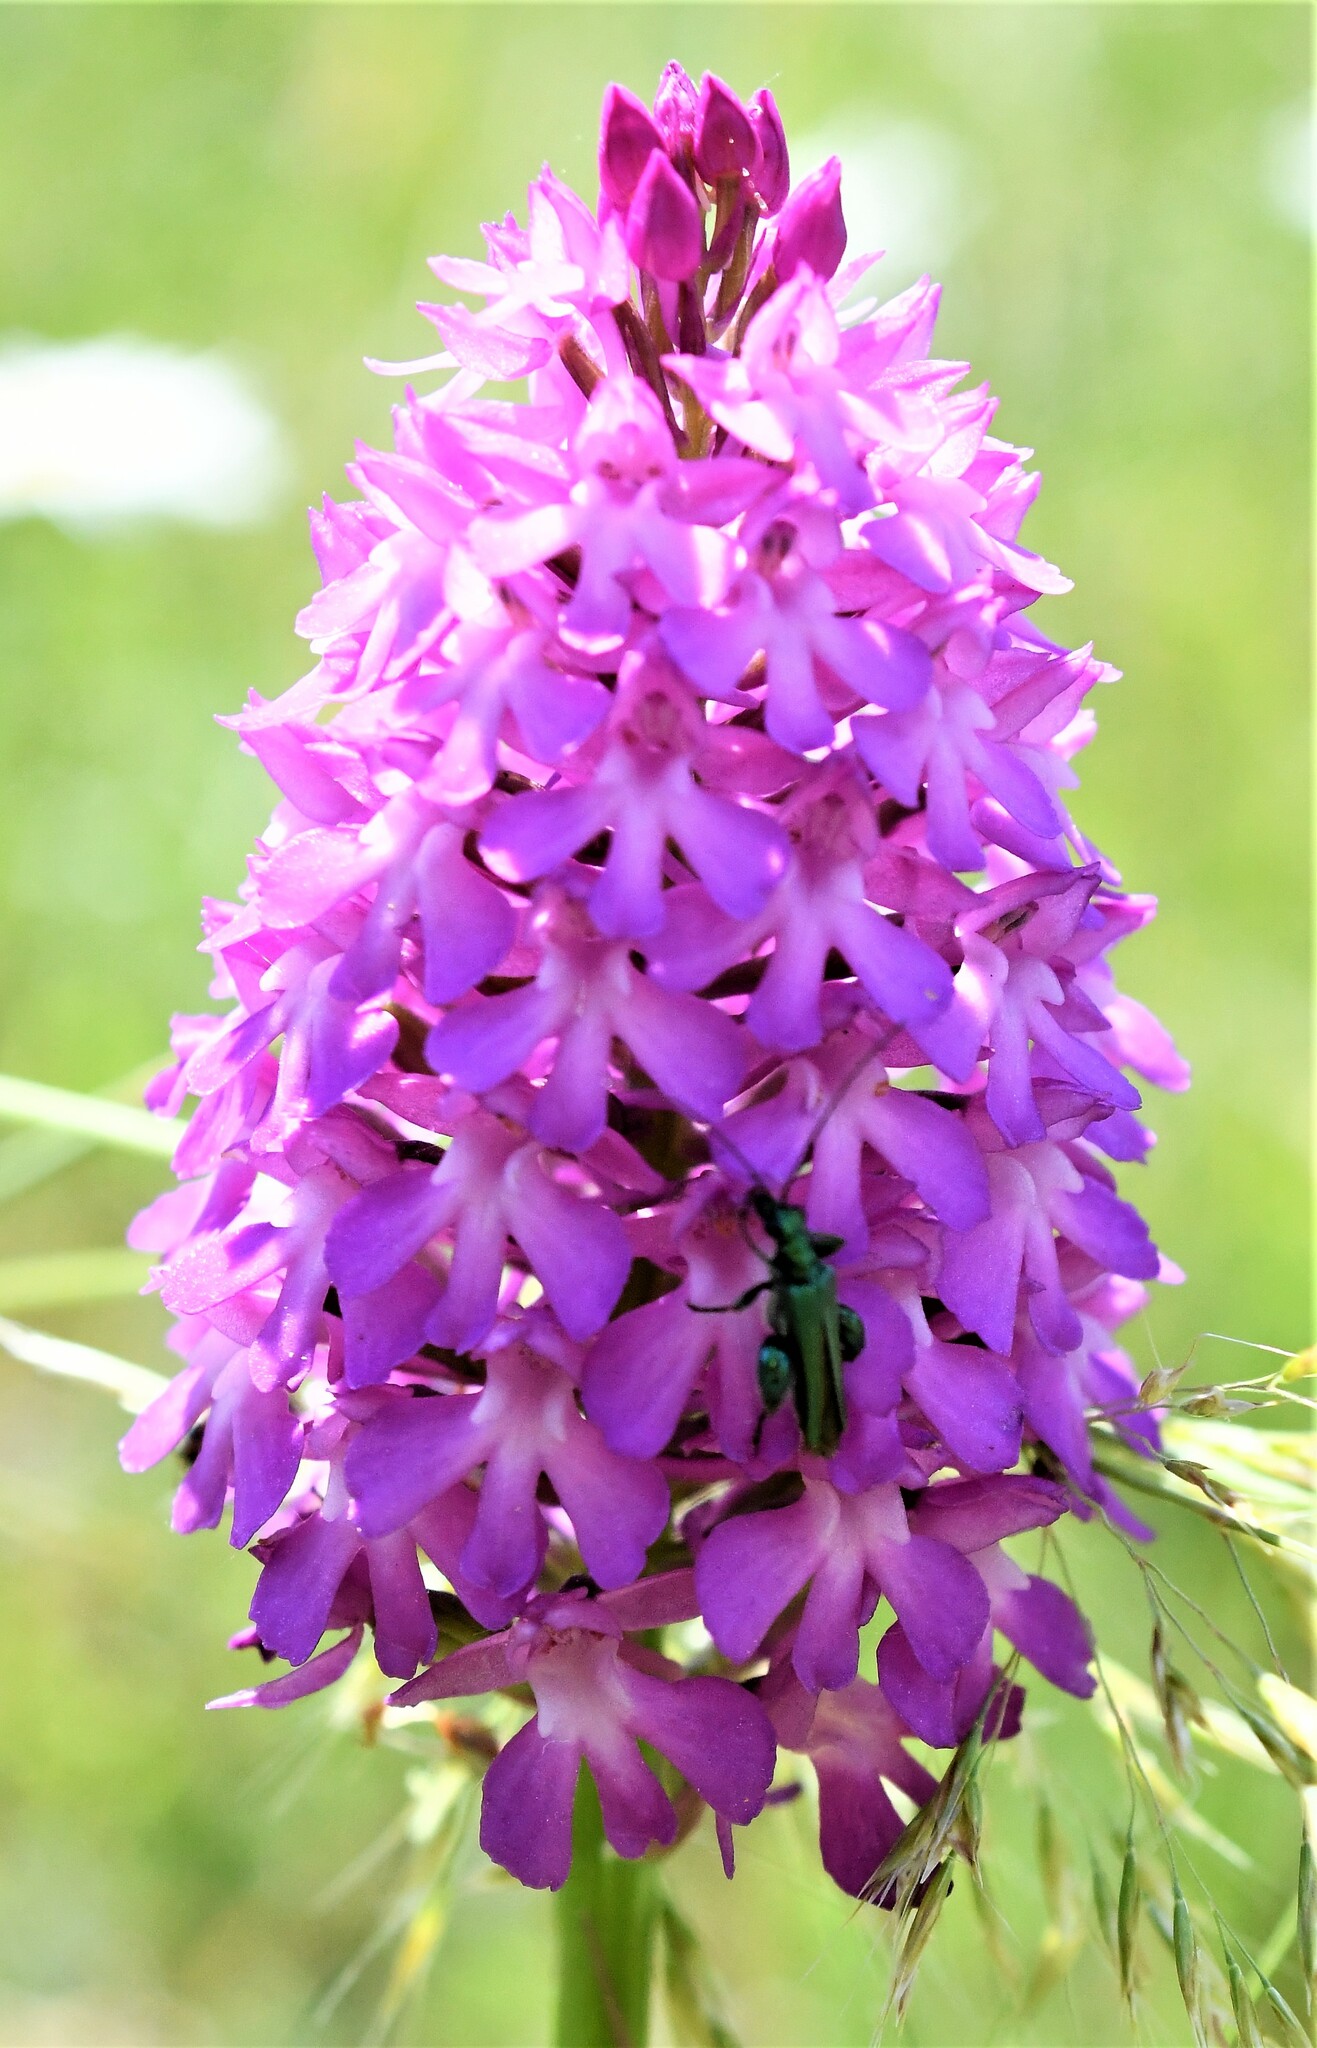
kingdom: Animalia
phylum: Arthropoda
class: Insecta
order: Coleoptera
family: Oedemeridae
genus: Oedemera
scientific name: Oedemera nobilis
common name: Swollen-thighed beetle
